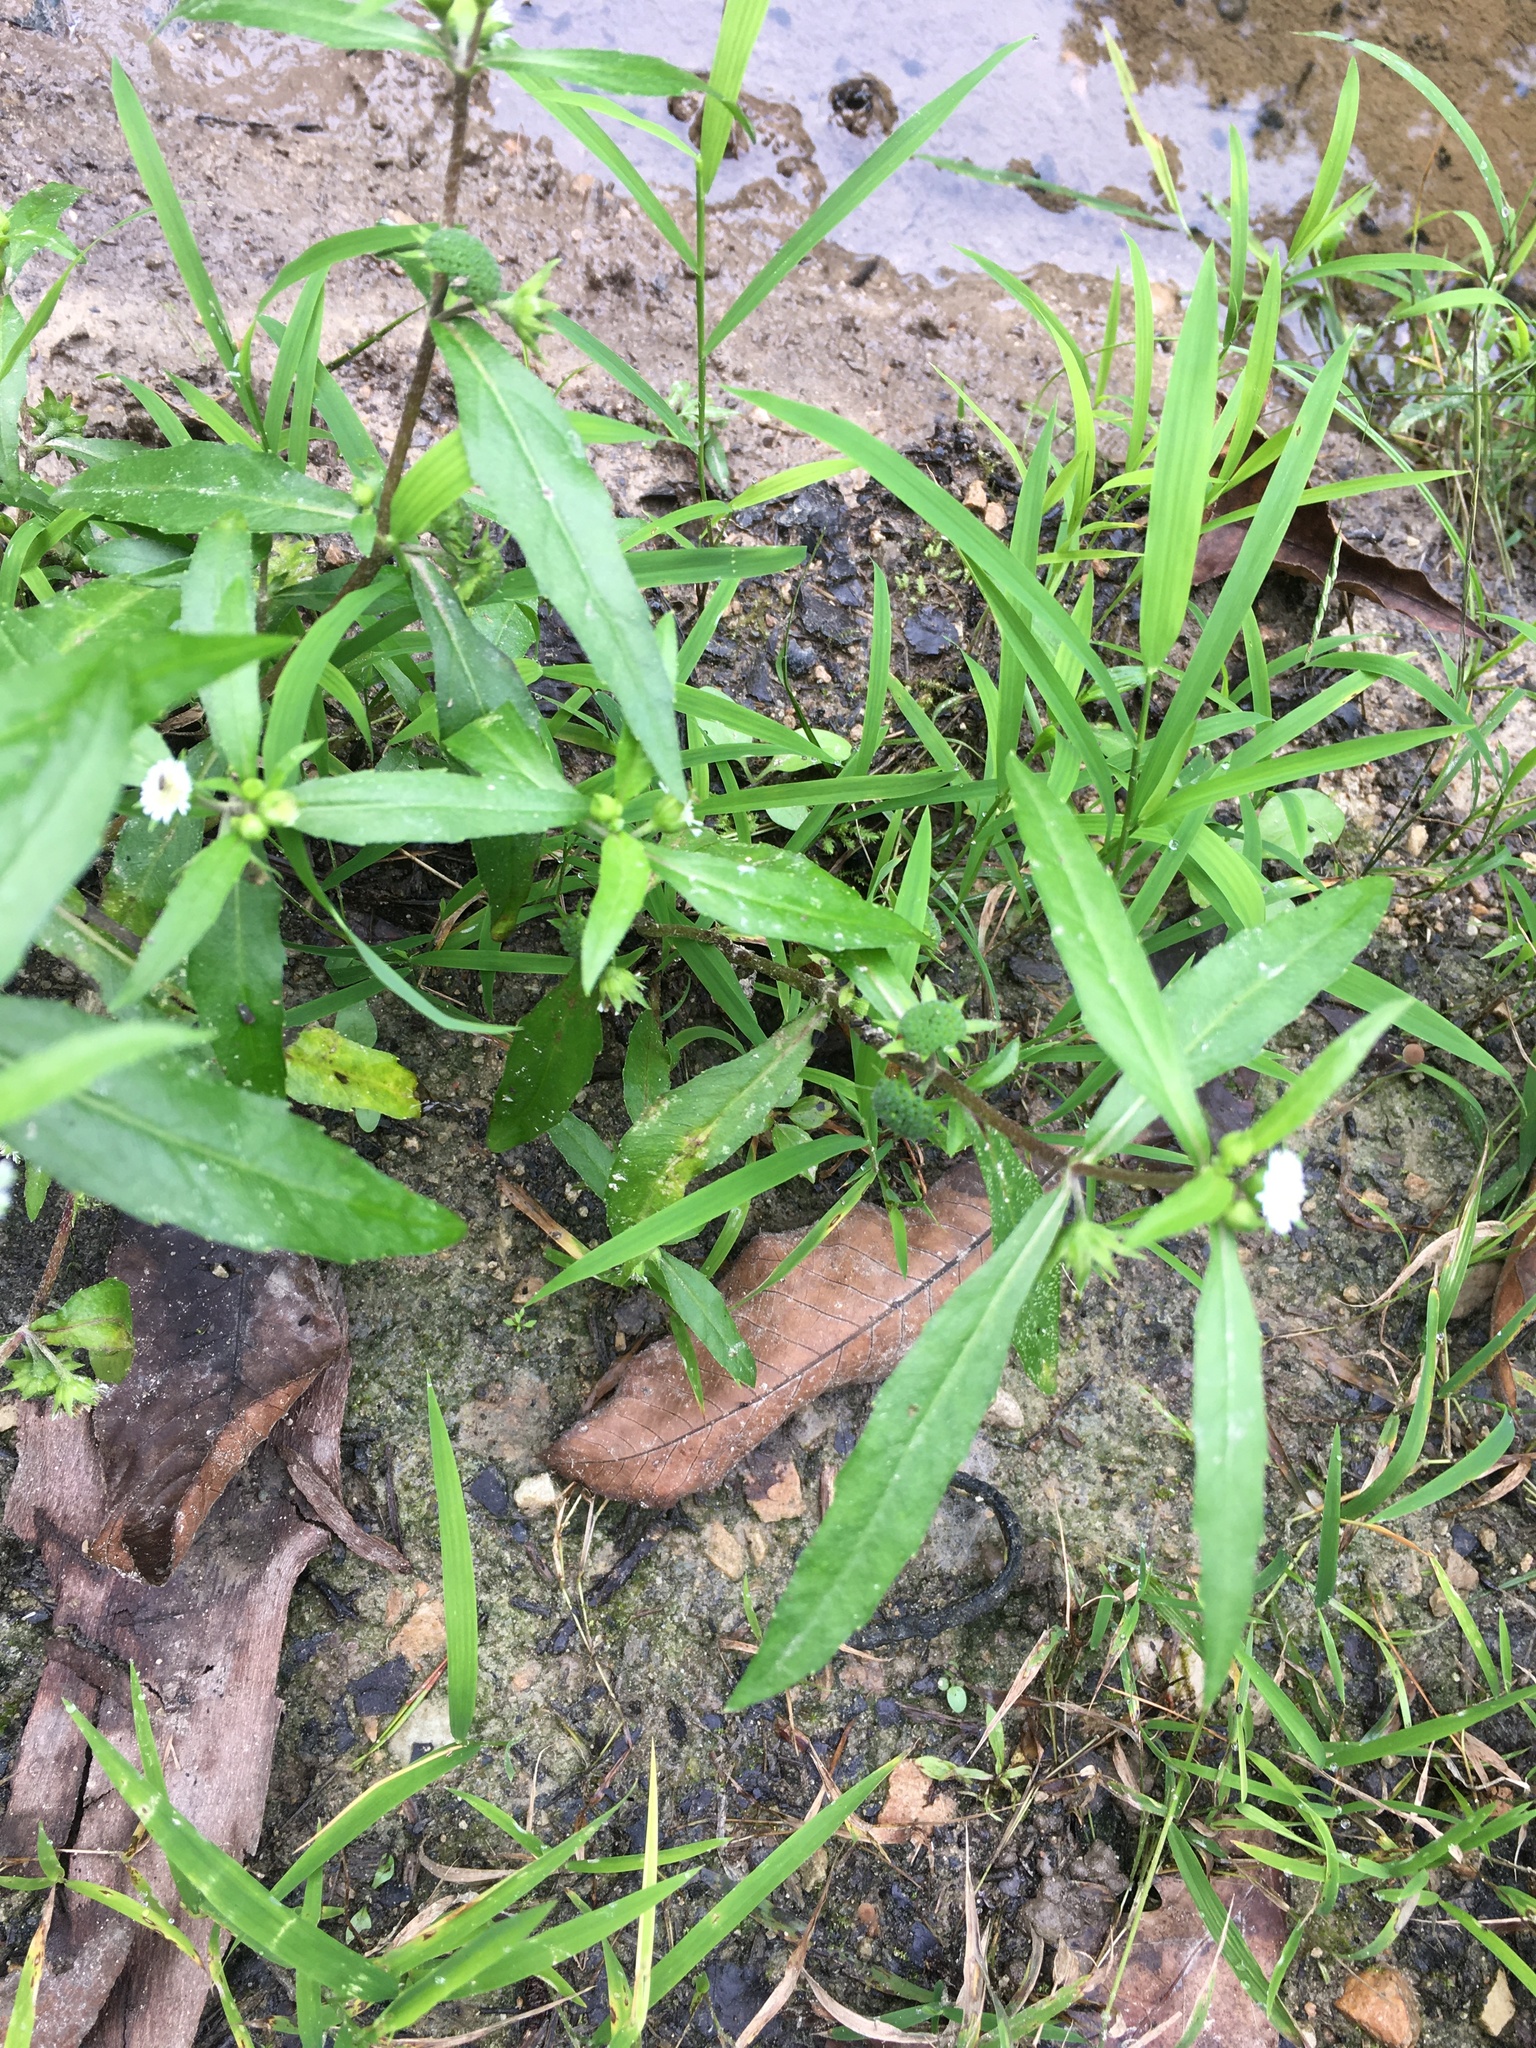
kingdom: Plantae
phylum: Tracheophyta
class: Magnoliopsida
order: Asterales
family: Asteraceae
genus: Eclipta
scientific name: Eclipta prostrata
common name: False daisy
